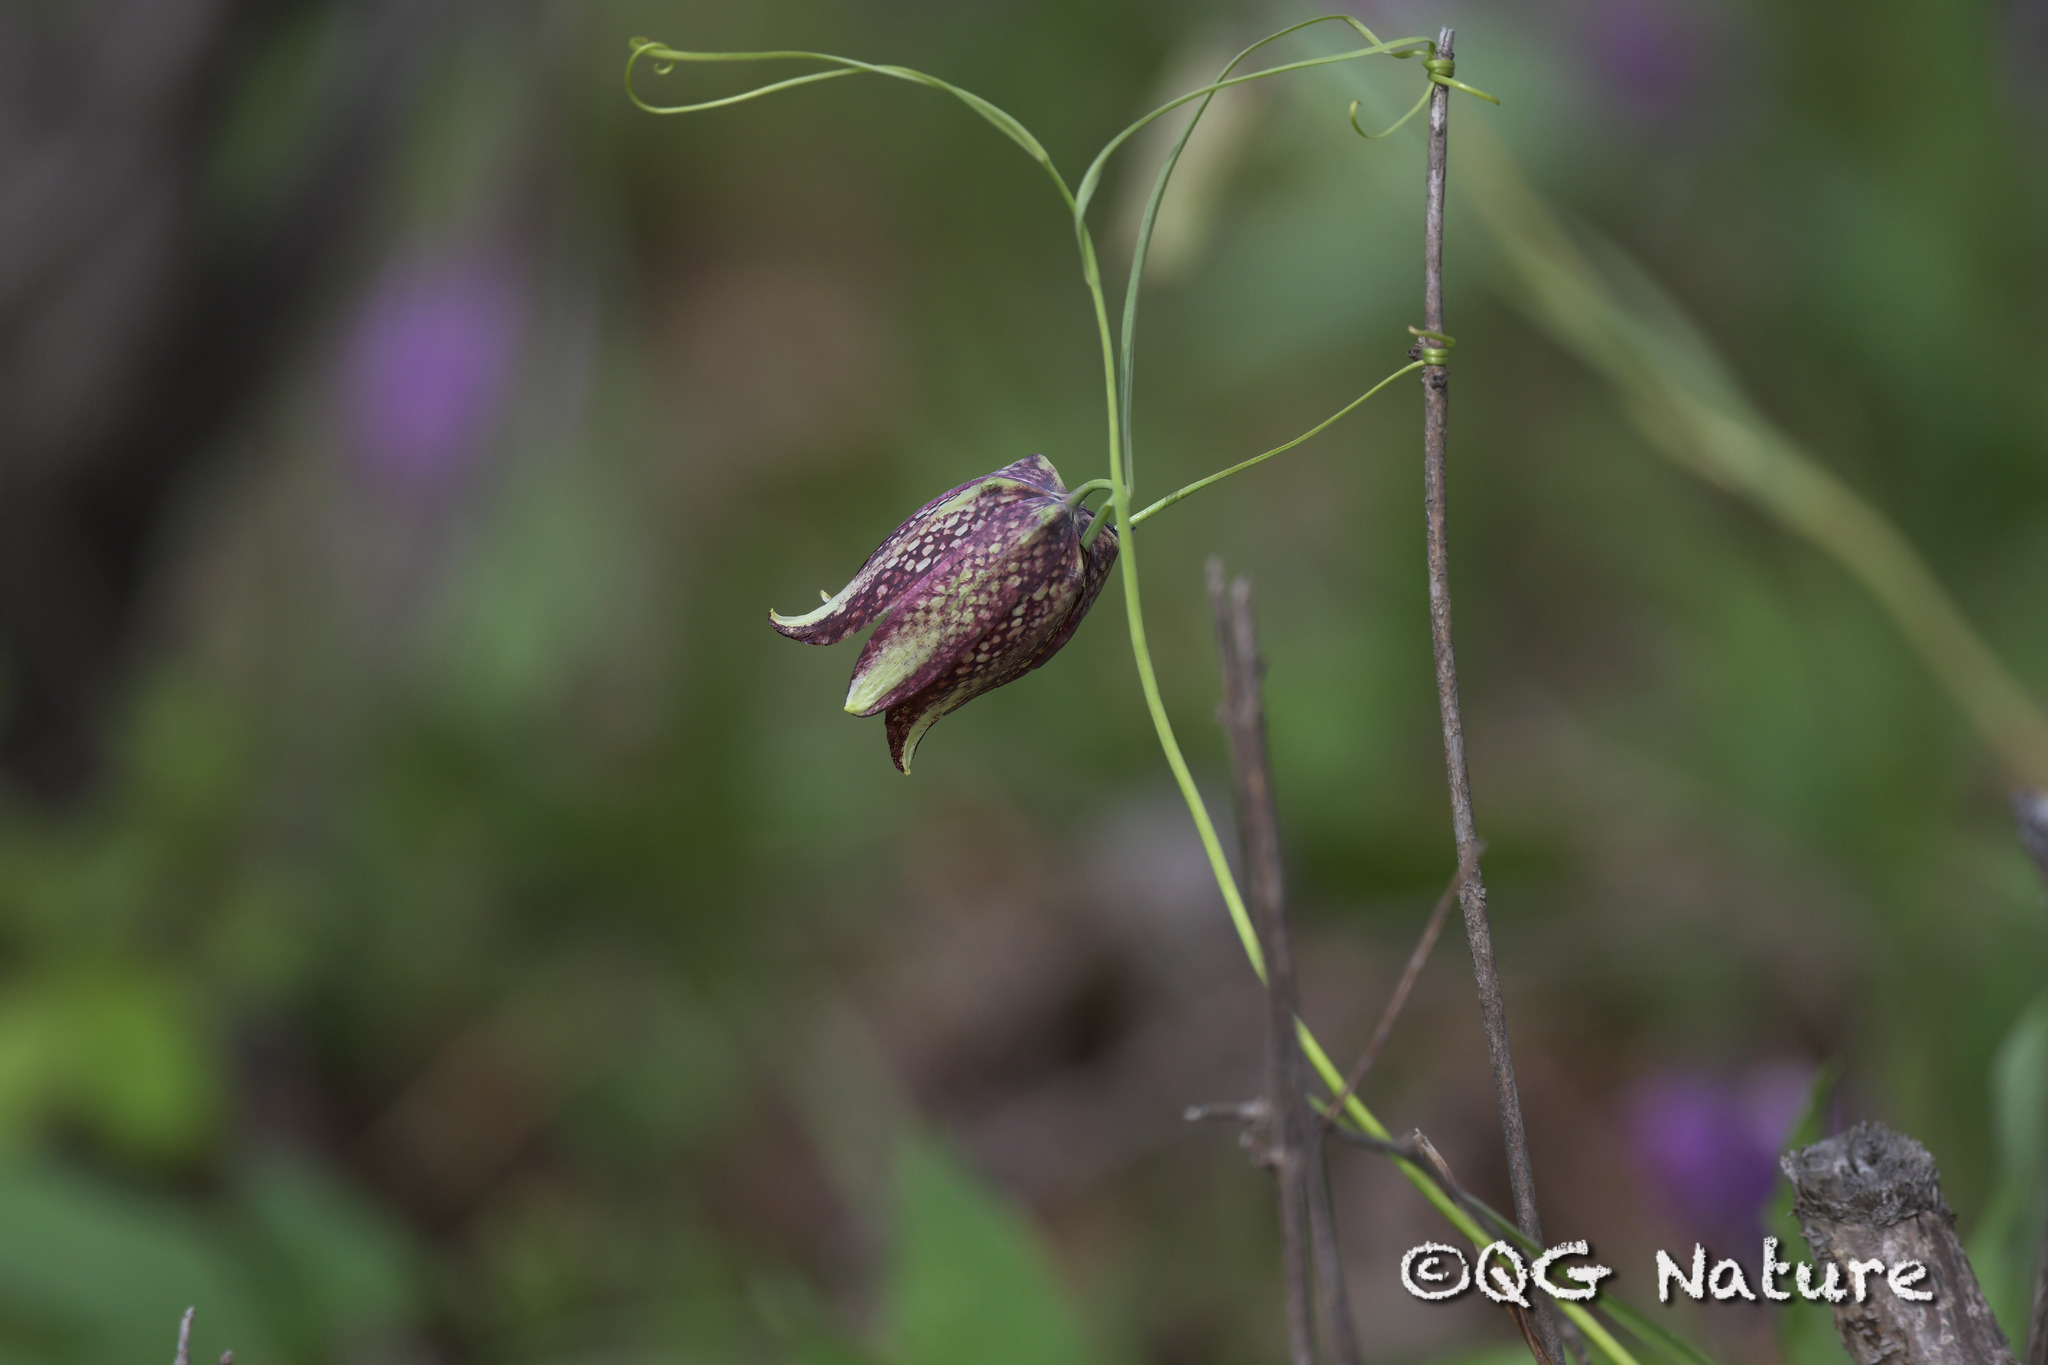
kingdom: Plantae
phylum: Tracheophyta
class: Liliopsida
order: Liliales
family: Liliaceae
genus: Fritillaria
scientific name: Fritillaria usuriensis
